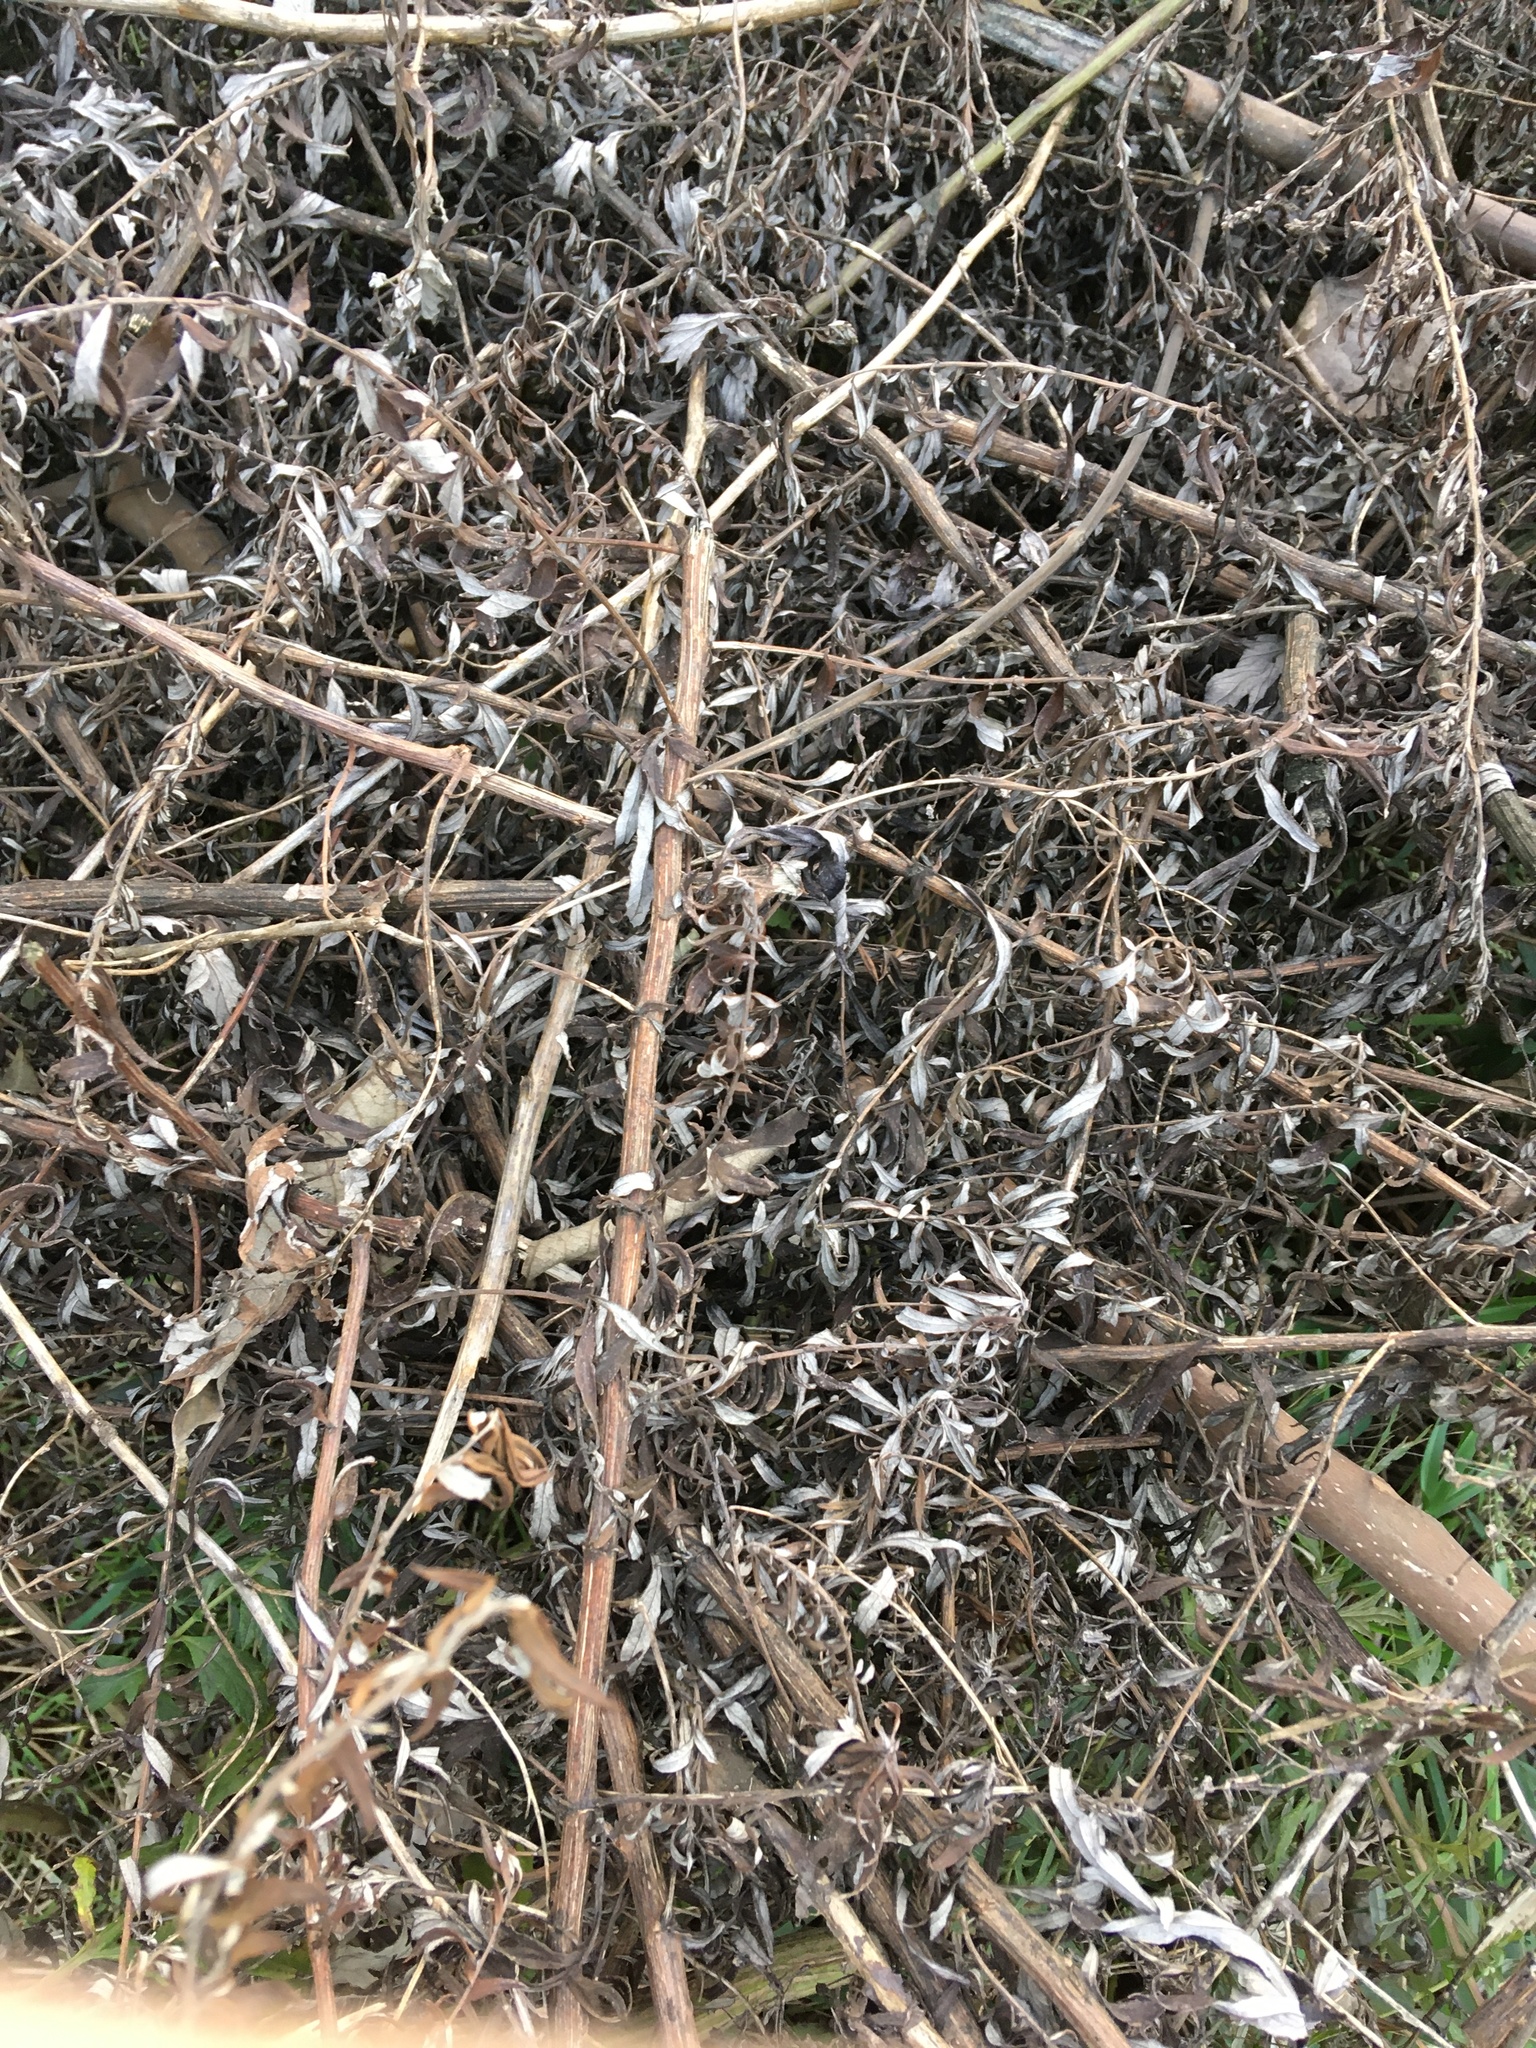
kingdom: Plantae
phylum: Tracheophyta
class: Magnoliopsida
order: Asterales
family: Asteraceae
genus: Artemisia
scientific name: Artemisia vulgaris
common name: Mugwort
